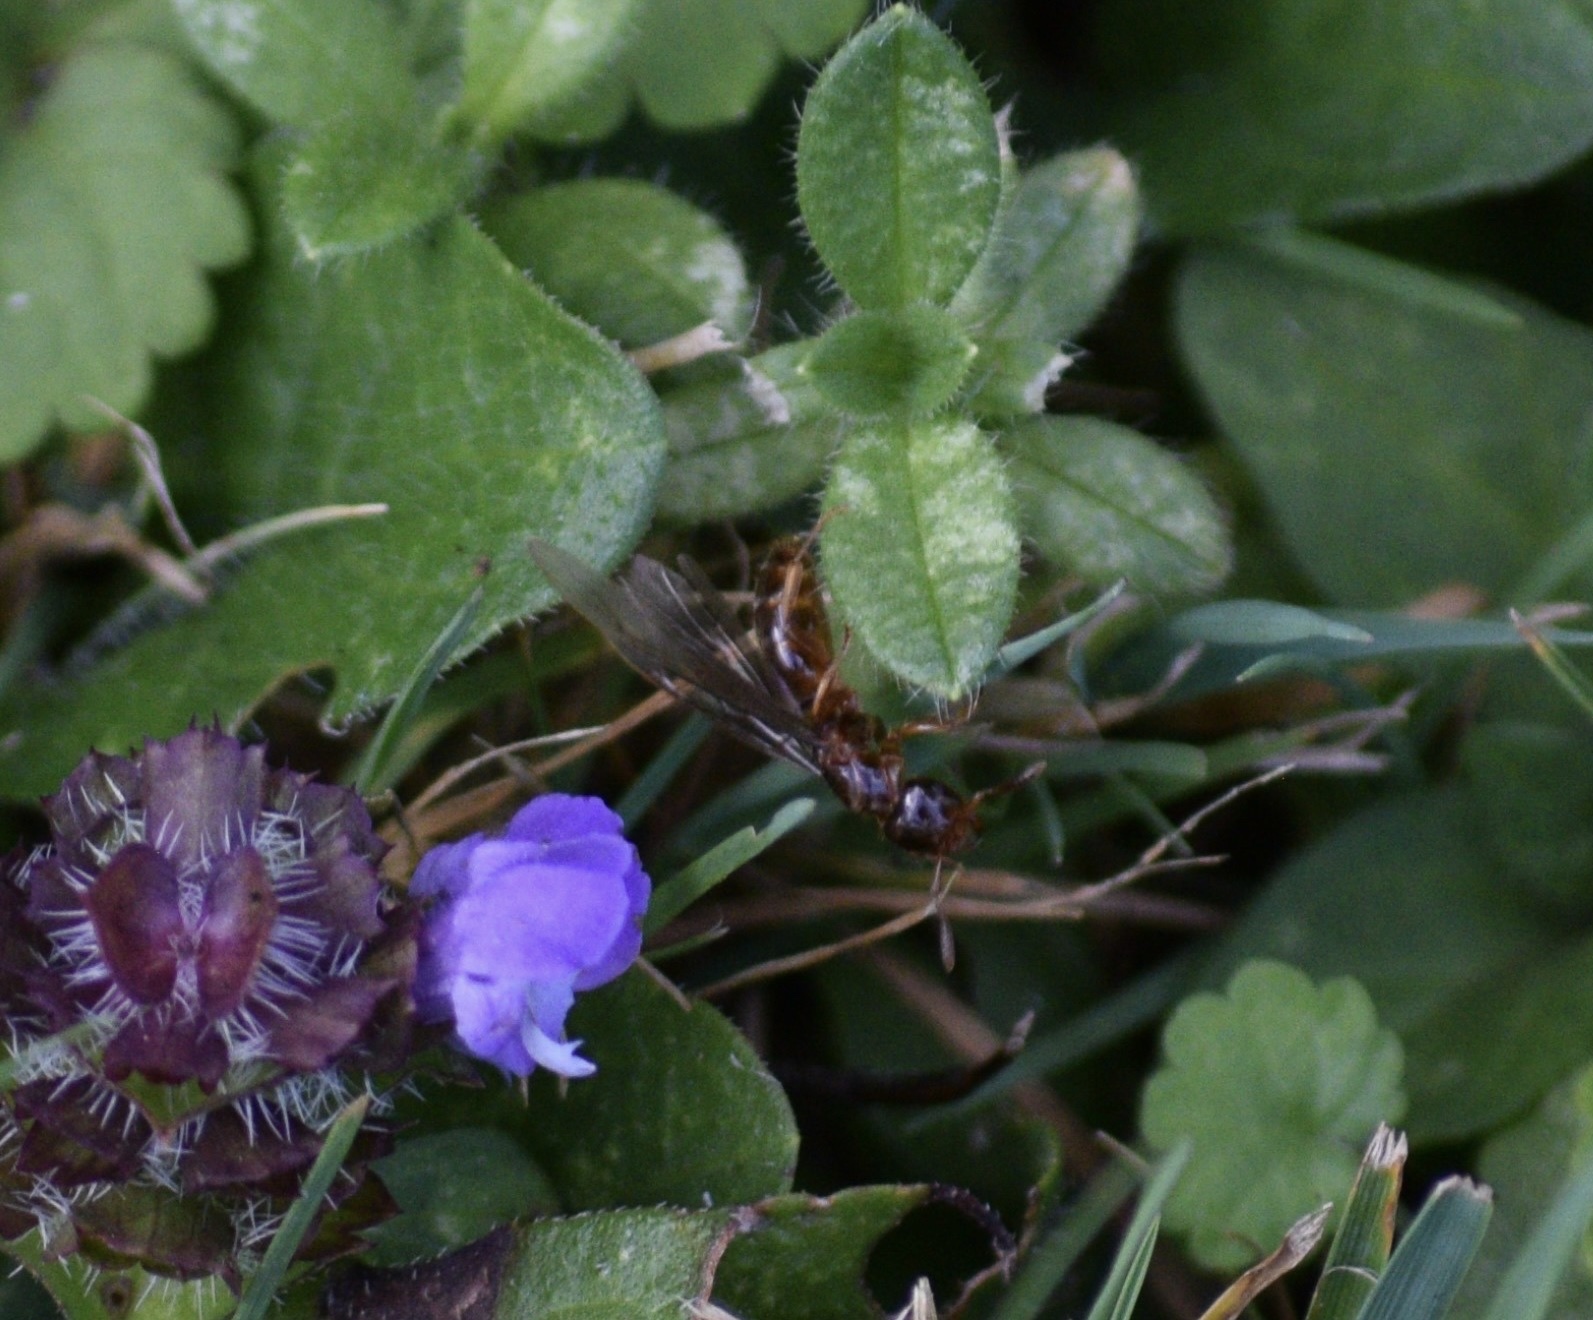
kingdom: Animalia
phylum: Arthropoda
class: Insecta
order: Hymenoptera
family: Formicidae
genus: Lasius
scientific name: Lasius claviger
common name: Common citronella ant
